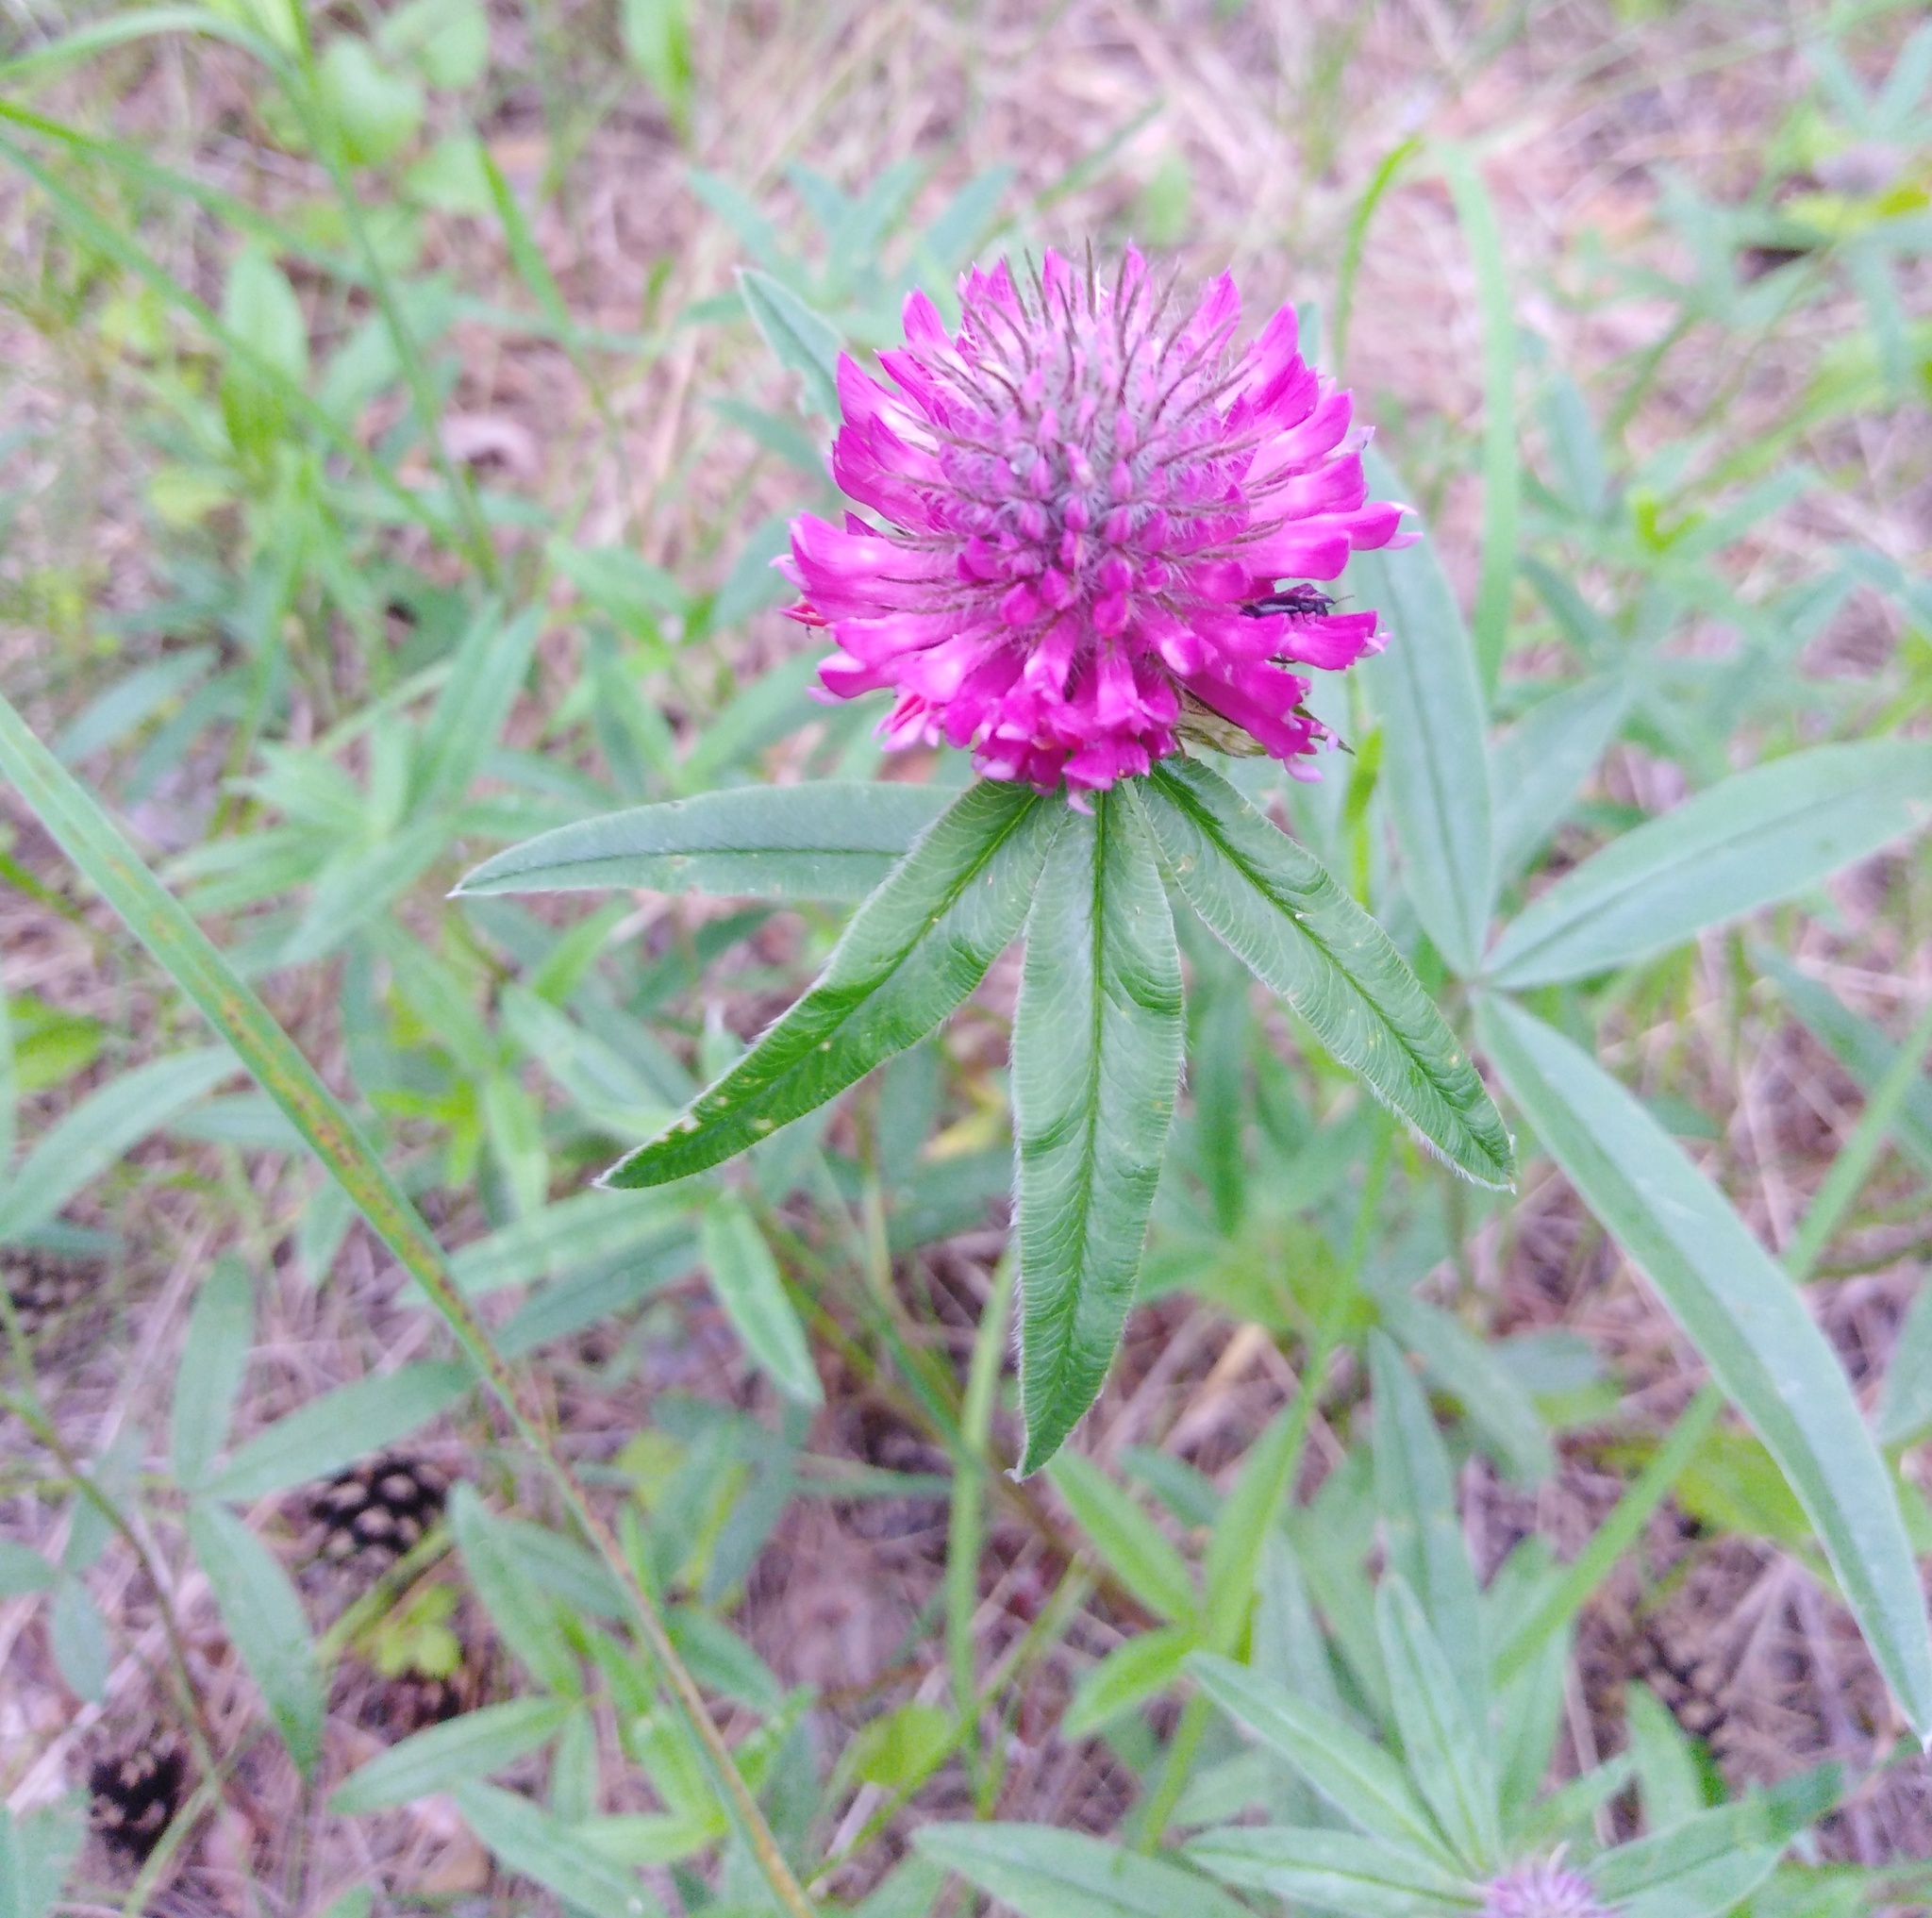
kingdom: Plantae
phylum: Tracheophyta
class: Magnoliopsida
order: Fabales
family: Fabaceae
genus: Trifolium
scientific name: Trifolium alpestre
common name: Owl-head clover
